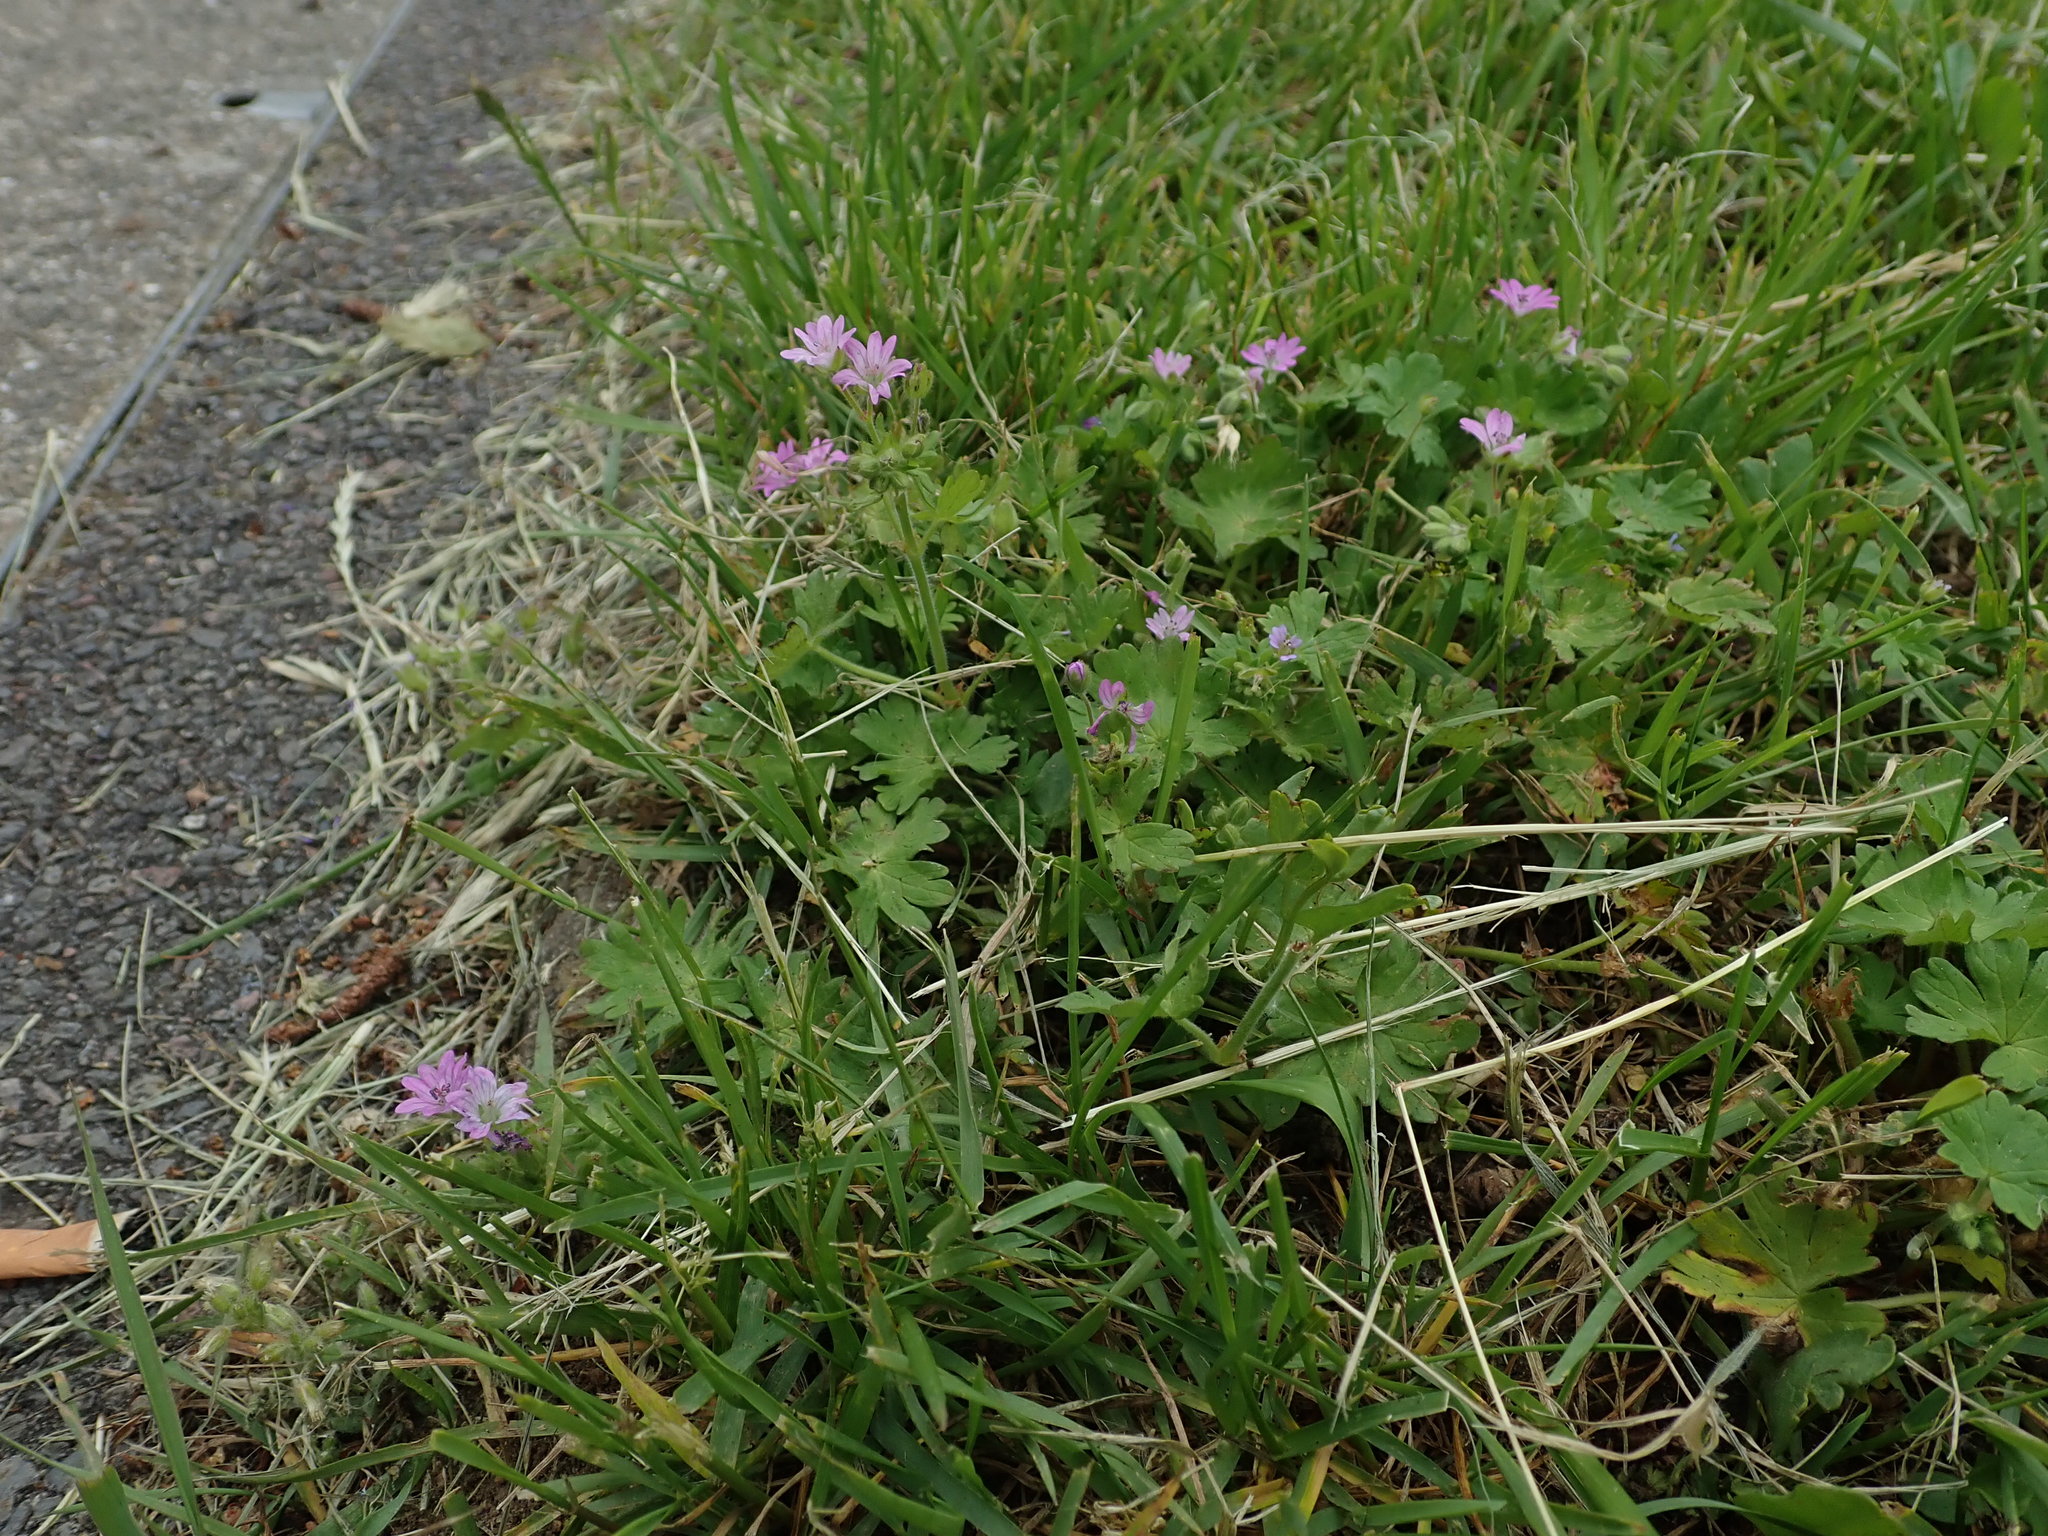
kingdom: Plantae
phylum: Tracheophyta
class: Magnoliopsida
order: Geraniales
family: Geraniaceae
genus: Geranium
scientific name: Geranium molle
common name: Dove's-foot crane's-bill
